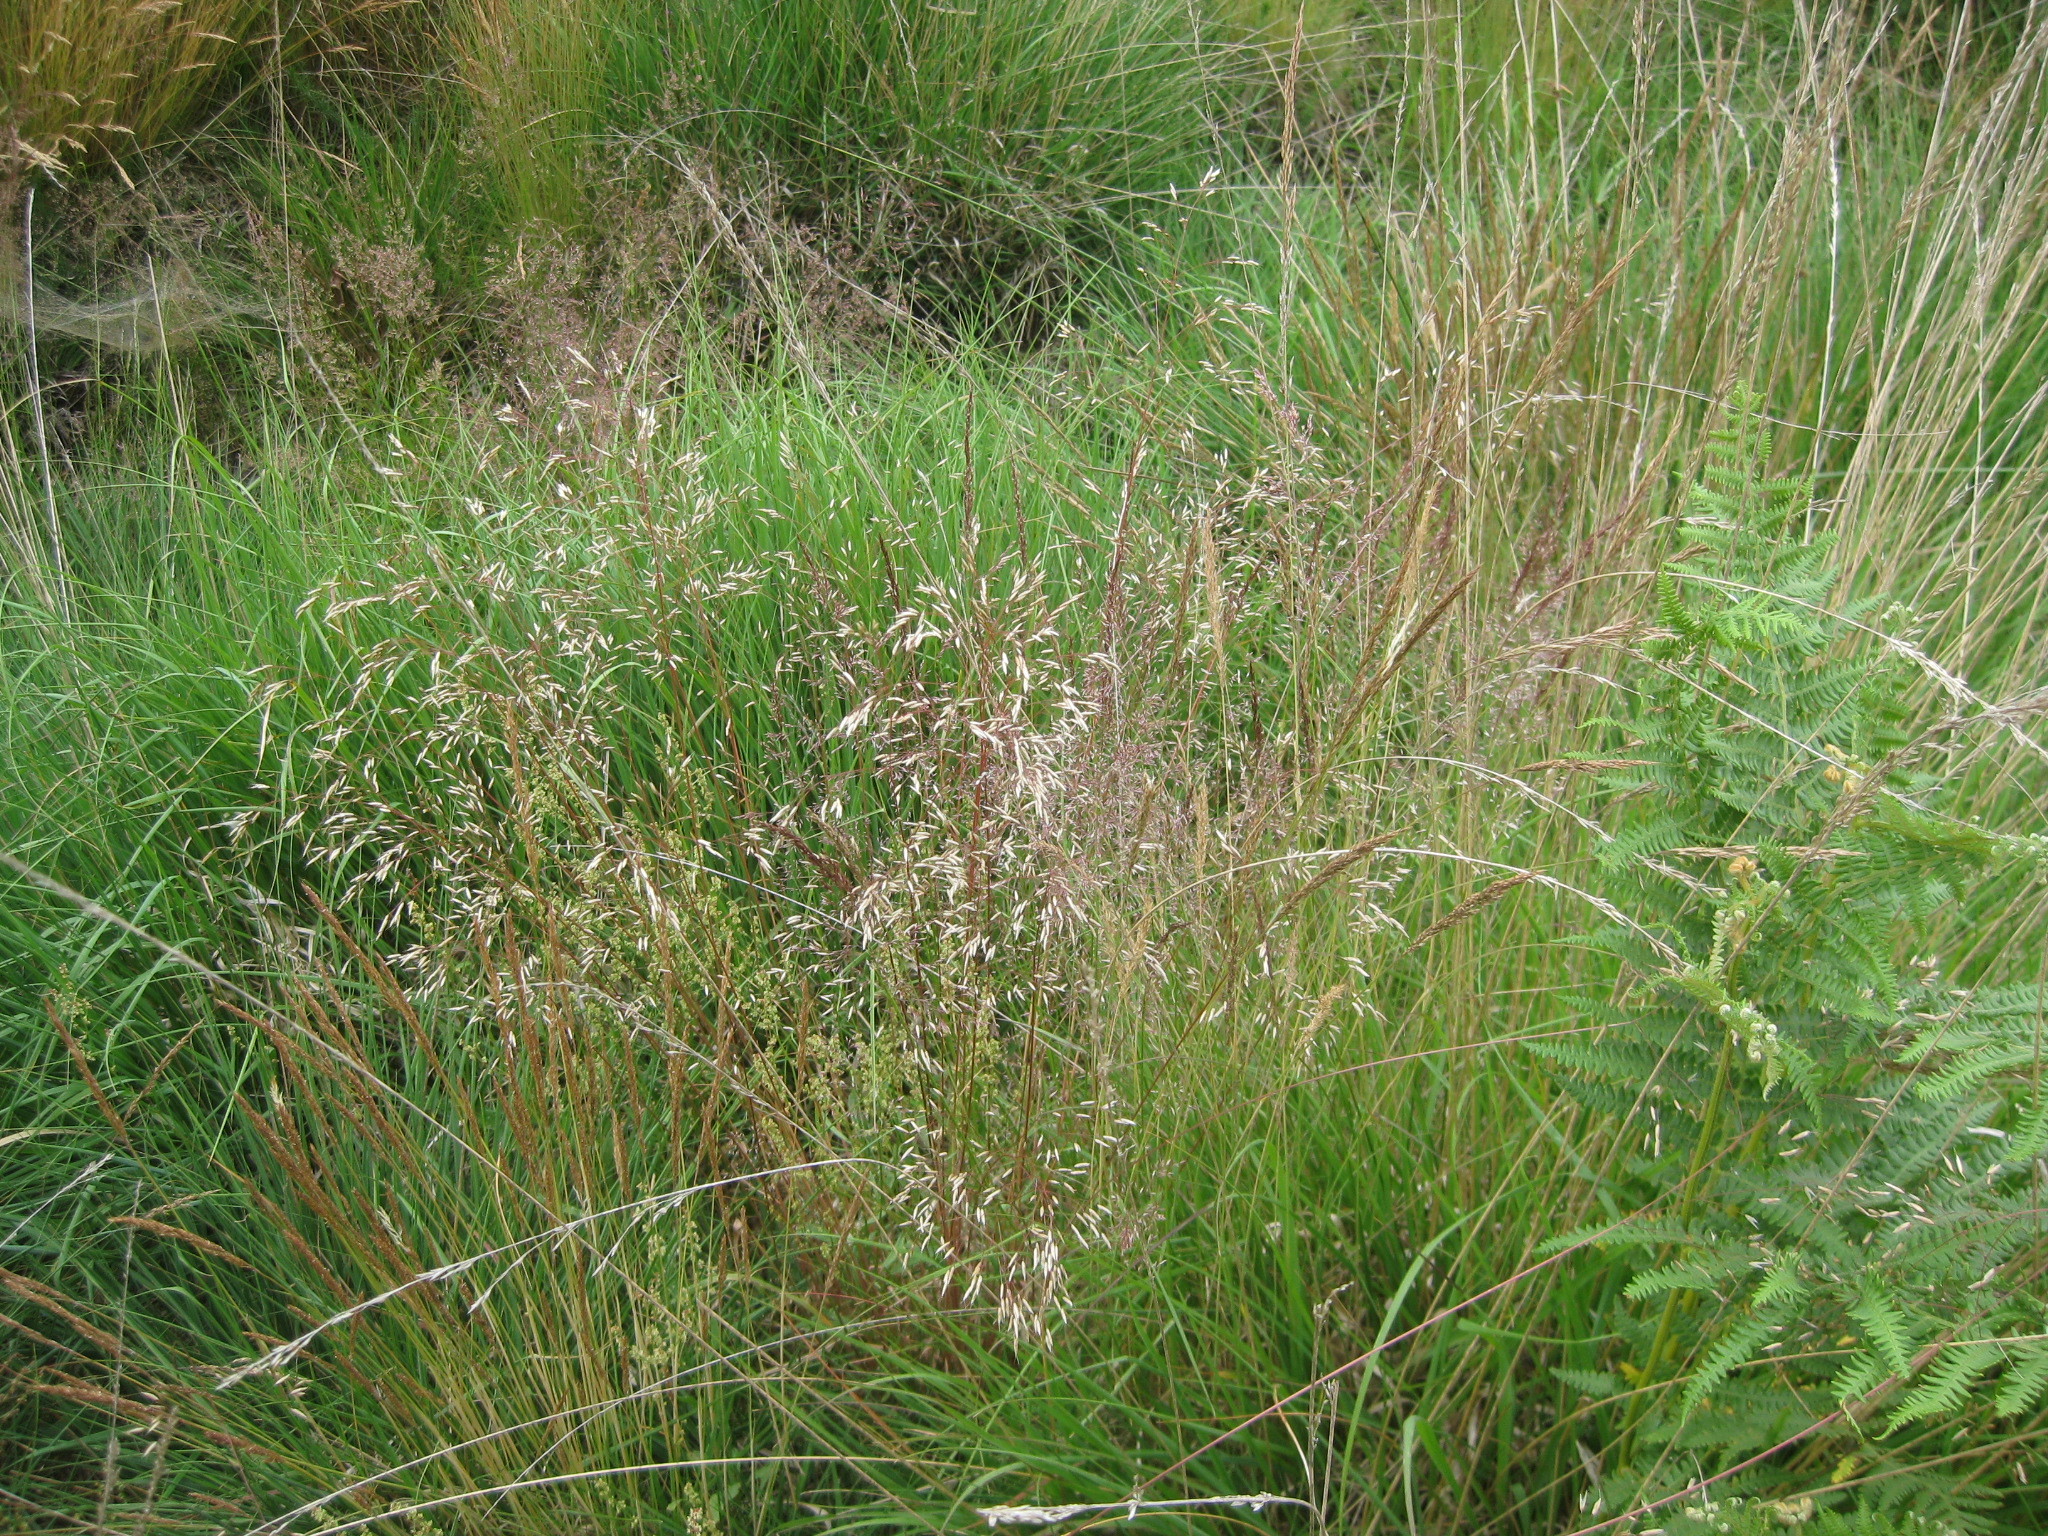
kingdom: Plantae
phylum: Tracheophyta
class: Liliopsida
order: Poales
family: Poaceae
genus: Avenella
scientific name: Avenella flexuosa
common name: Wavy hairgrass
